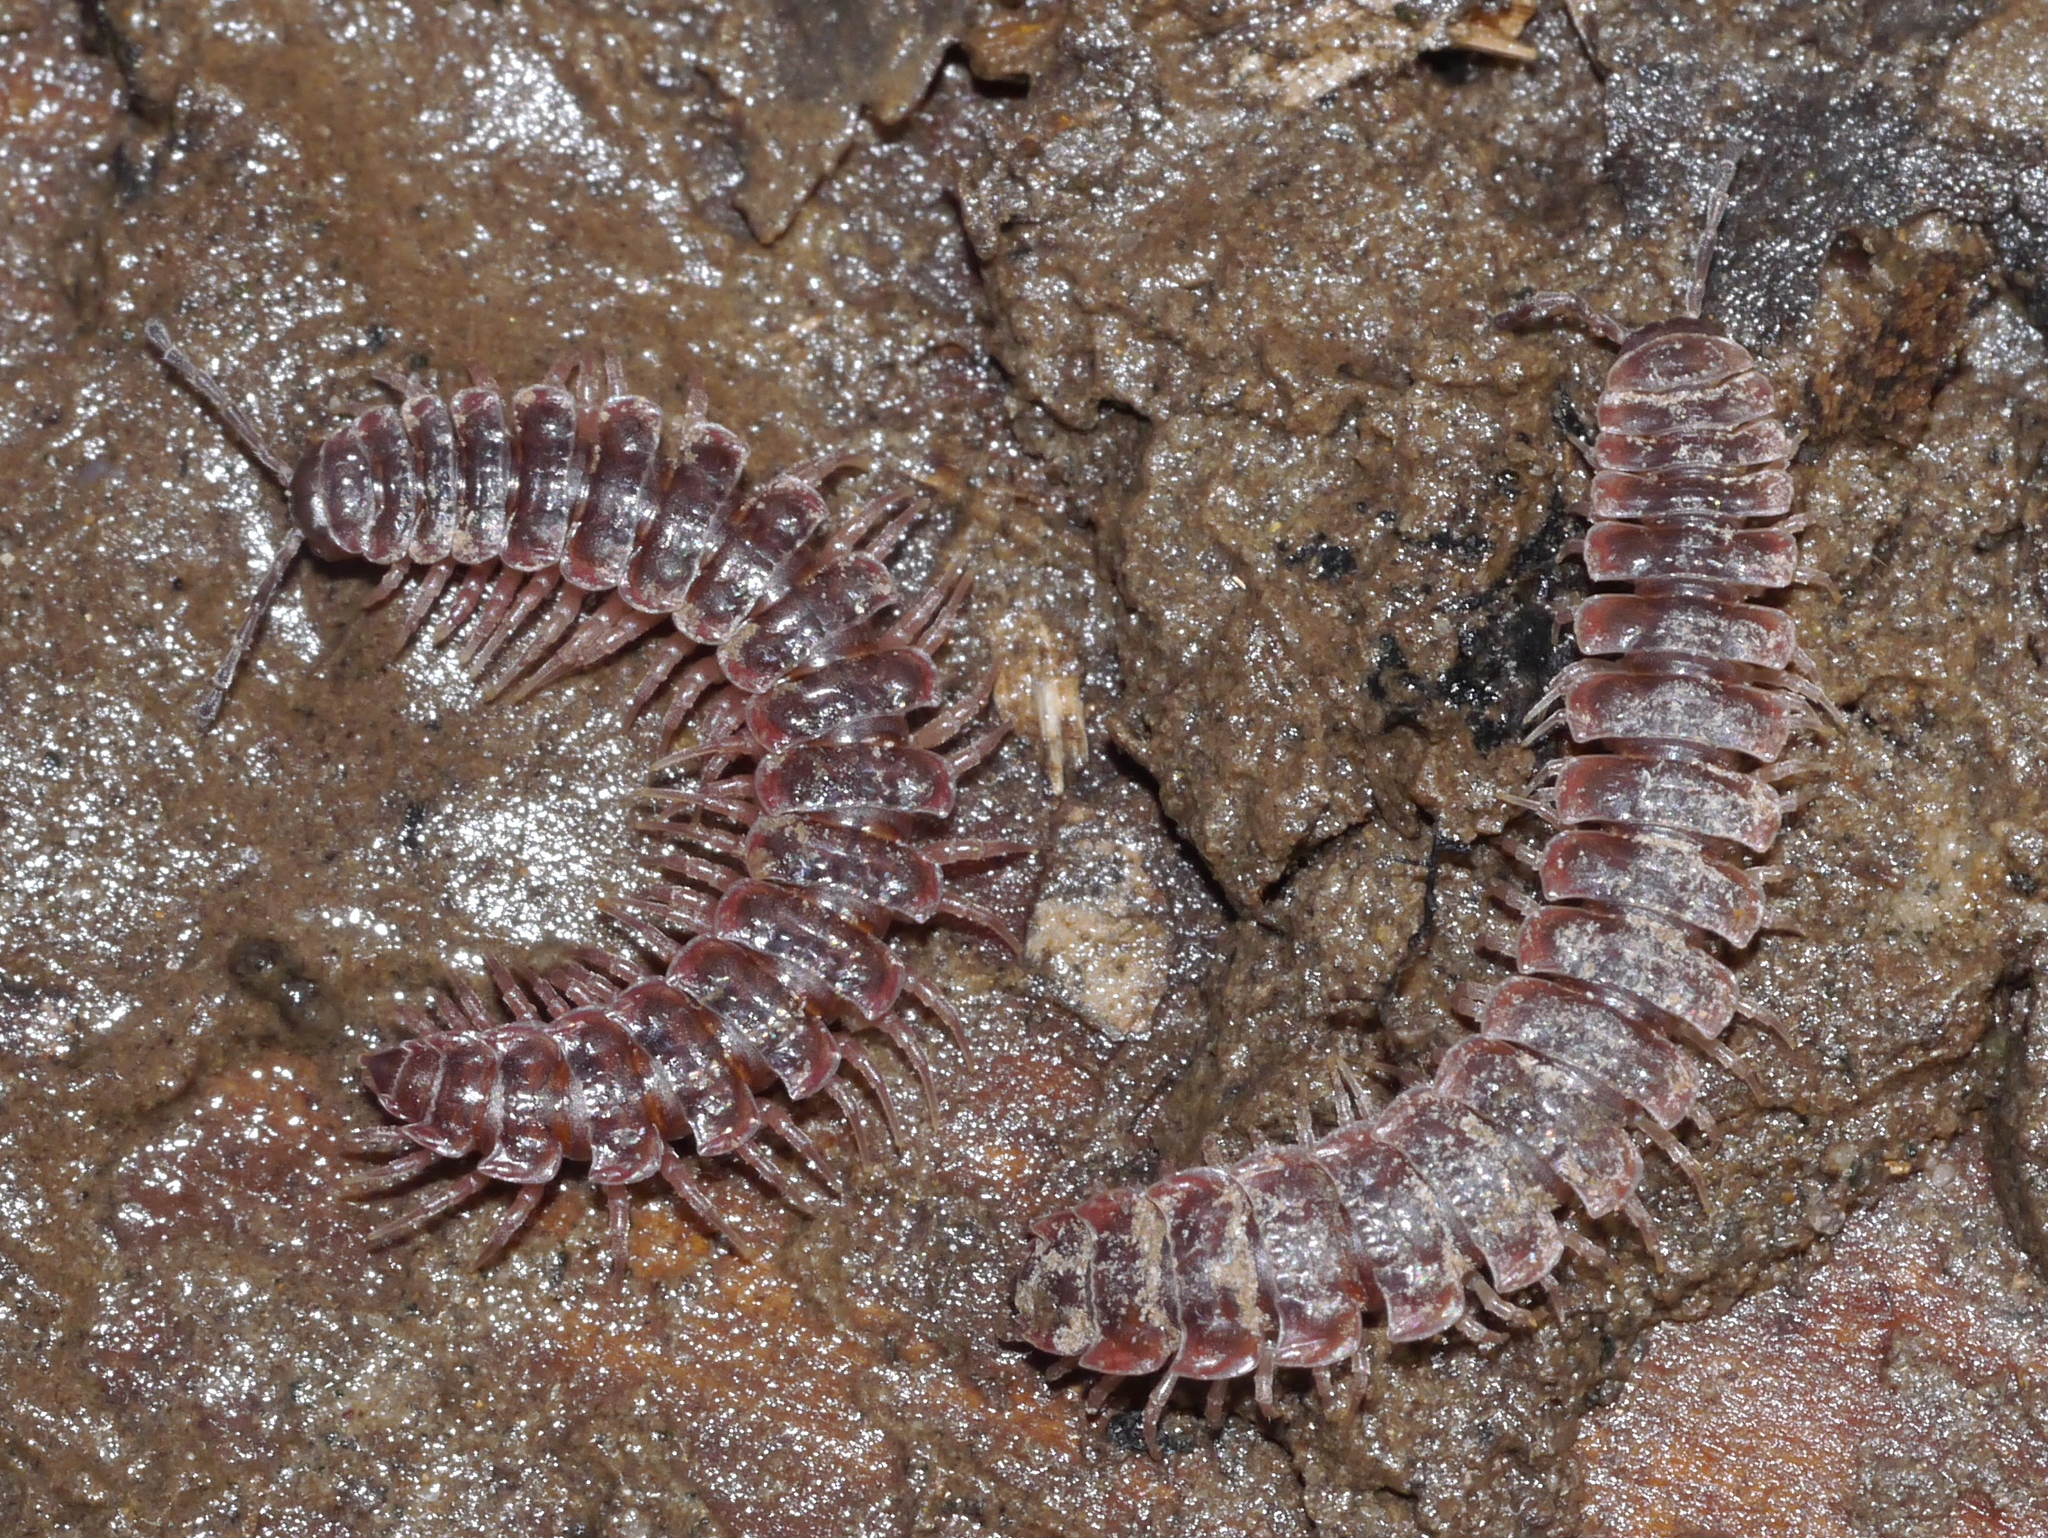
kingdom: Animalia
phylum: Arthropoda
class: Diplopoda
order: Polydesmida
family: Polydesmidae
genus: Pseudopolydesmus
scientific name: Pseudopolydesmus serratus
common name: Common pink flat-back millipede
